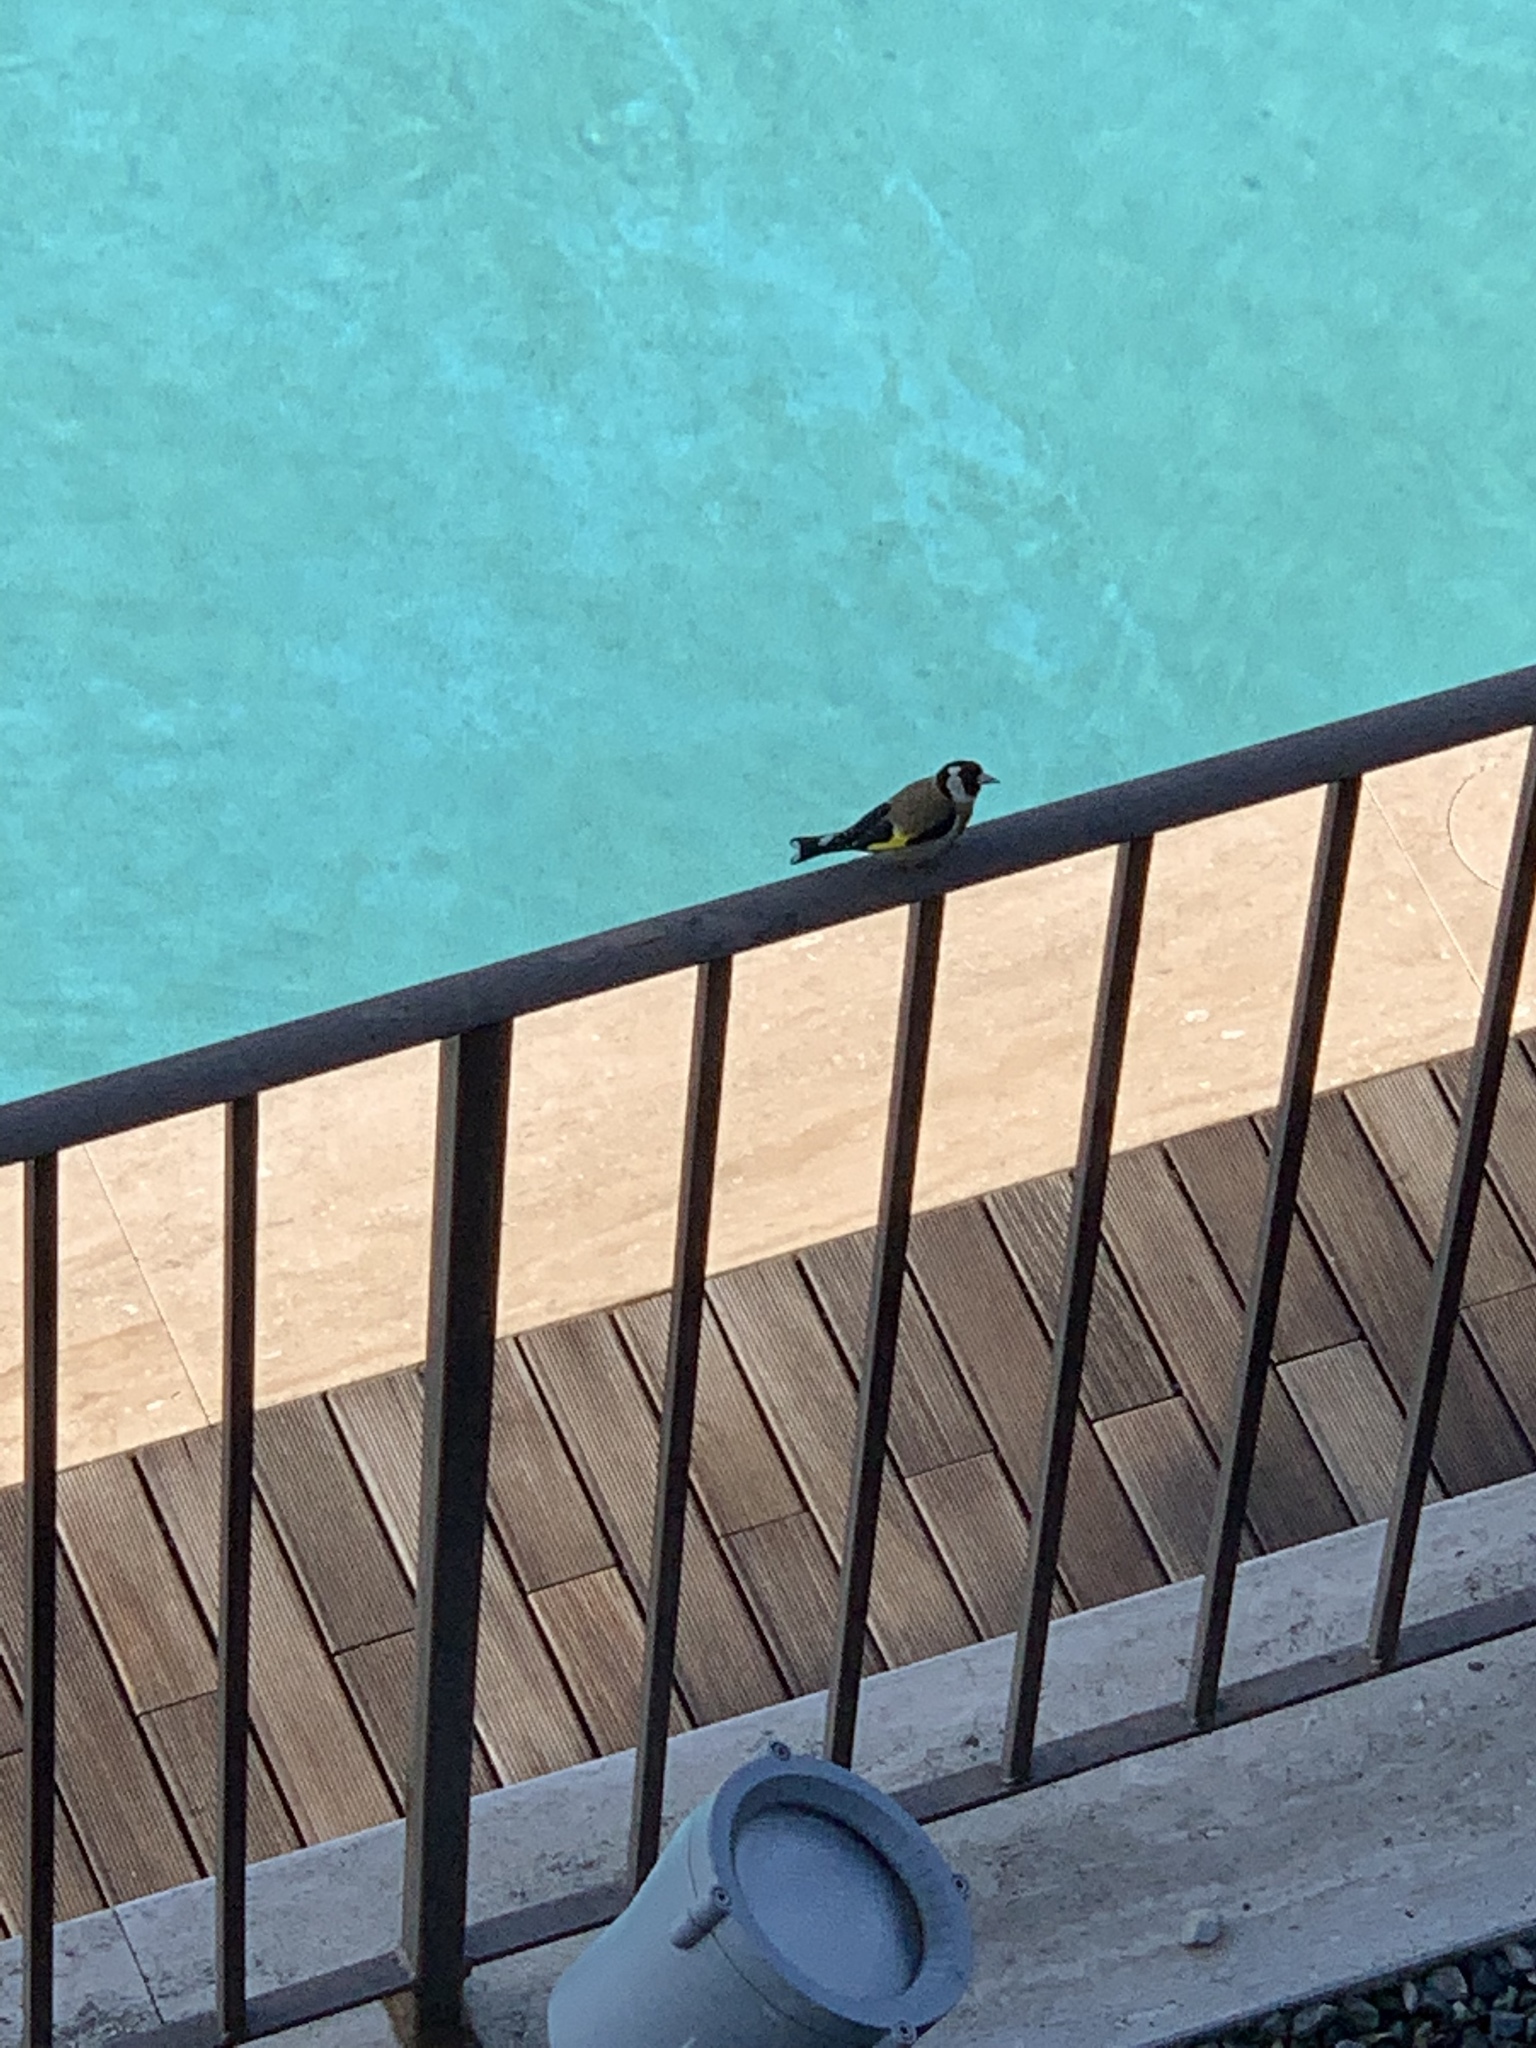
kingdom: Animalia
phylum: Chordata
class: Aves
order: Passeriformes
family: Fringillidae
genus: Carduelis
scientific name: Carduelis carduelis
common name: European goldfinch
